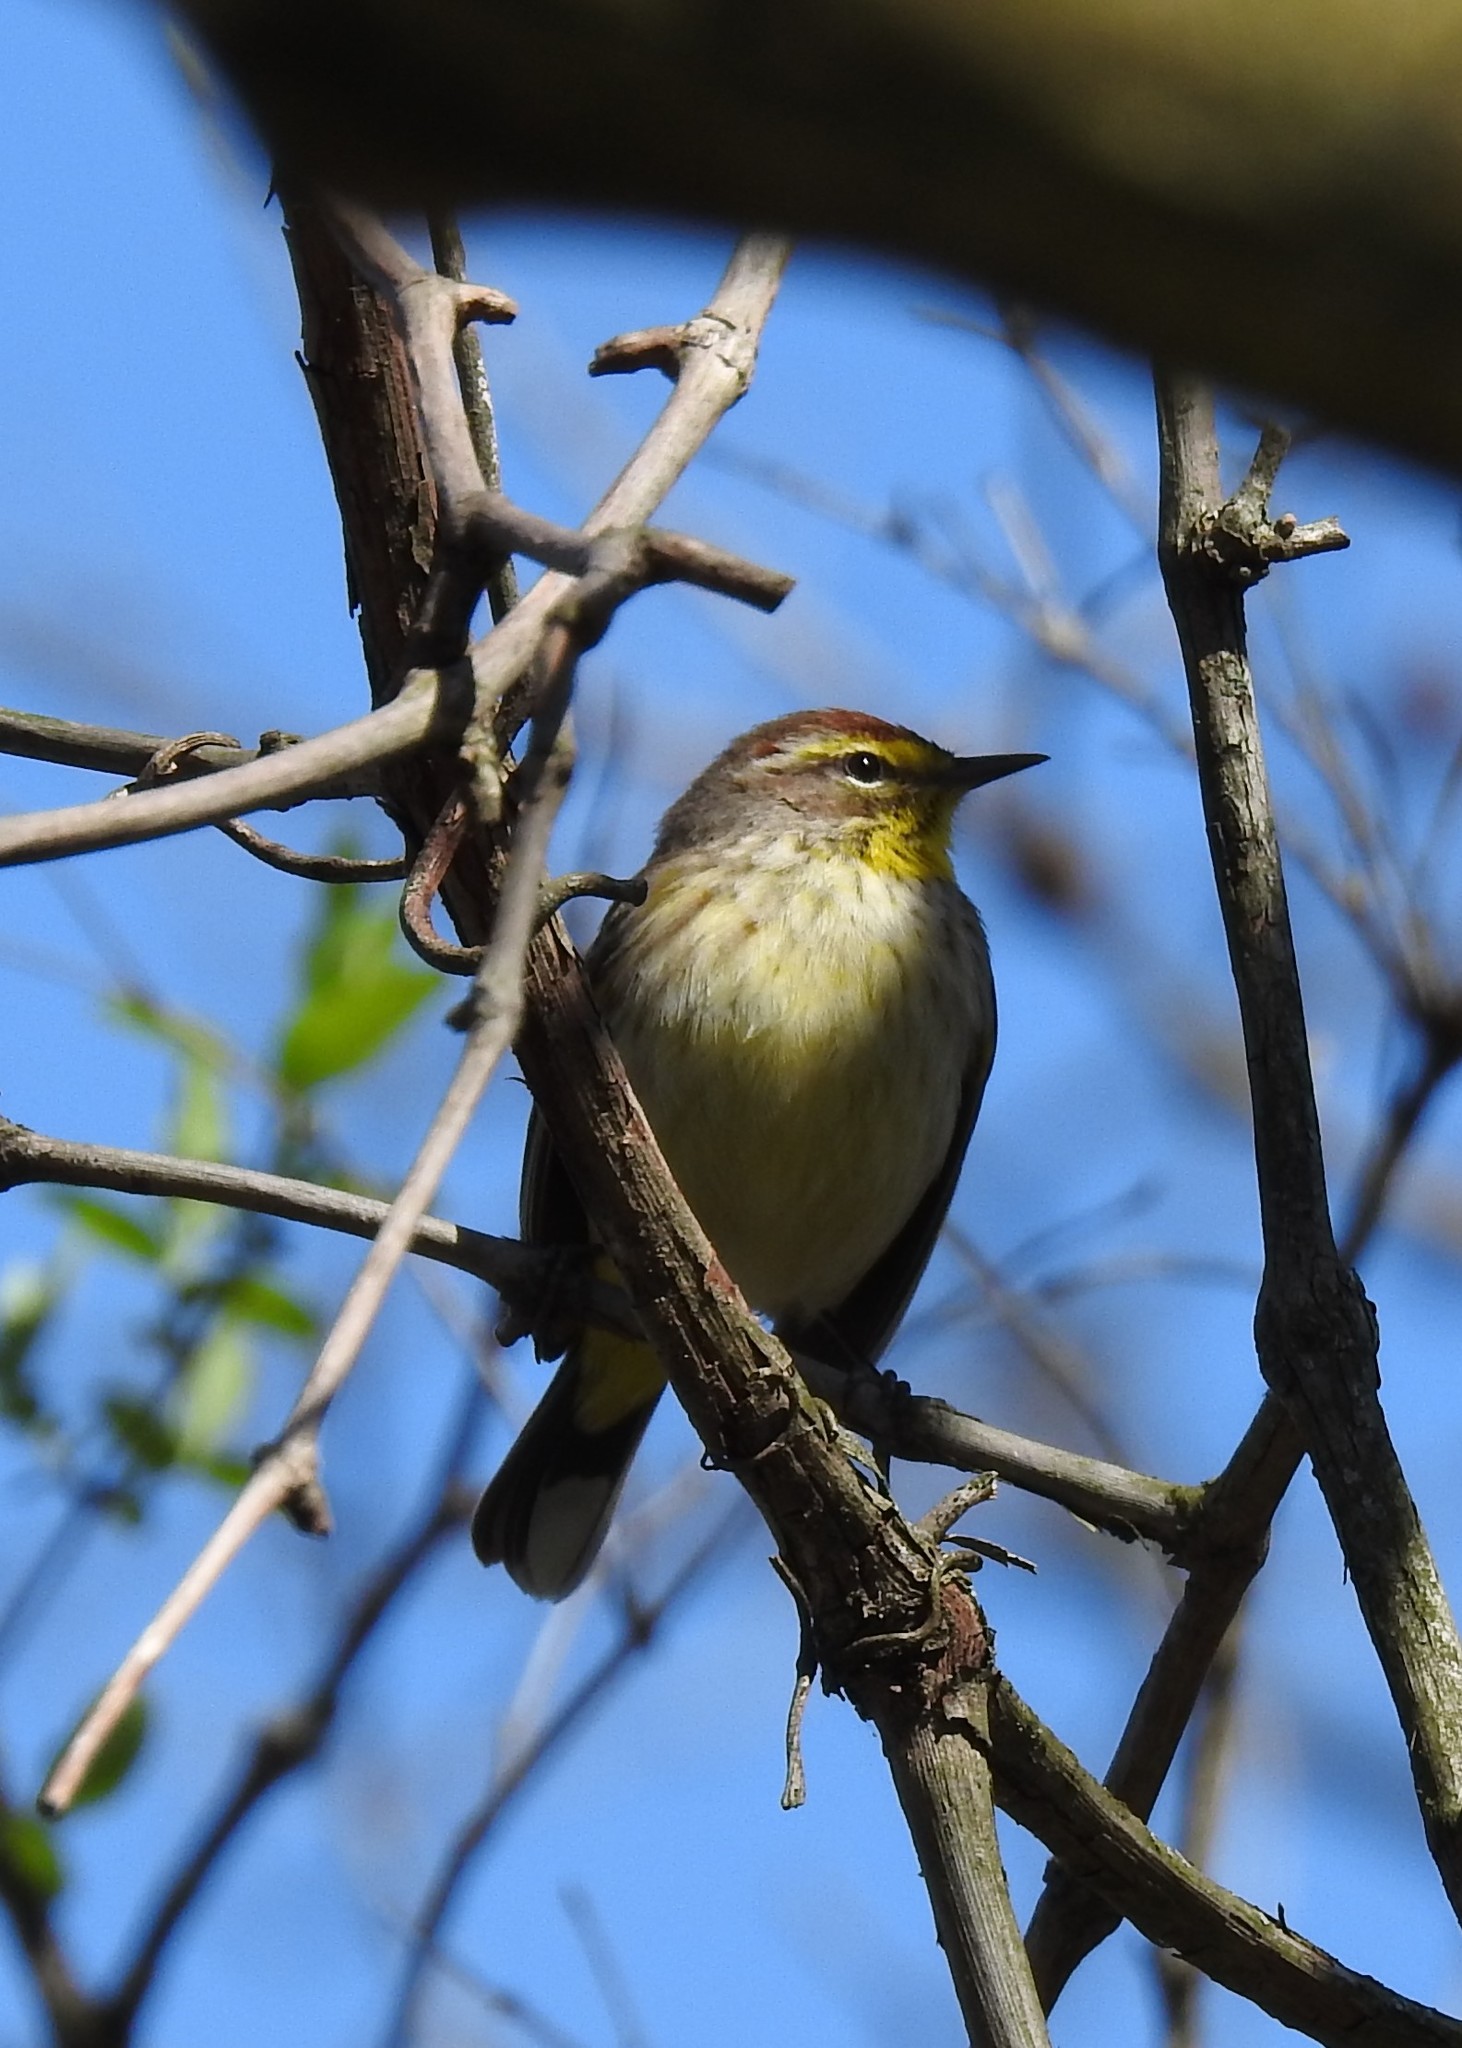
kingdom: Animalia
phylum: Chordata
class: Aves
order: Passeriformes
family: Parulidae
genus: Setophaga
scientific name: Setophaga palmarum
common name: Palm warbler
